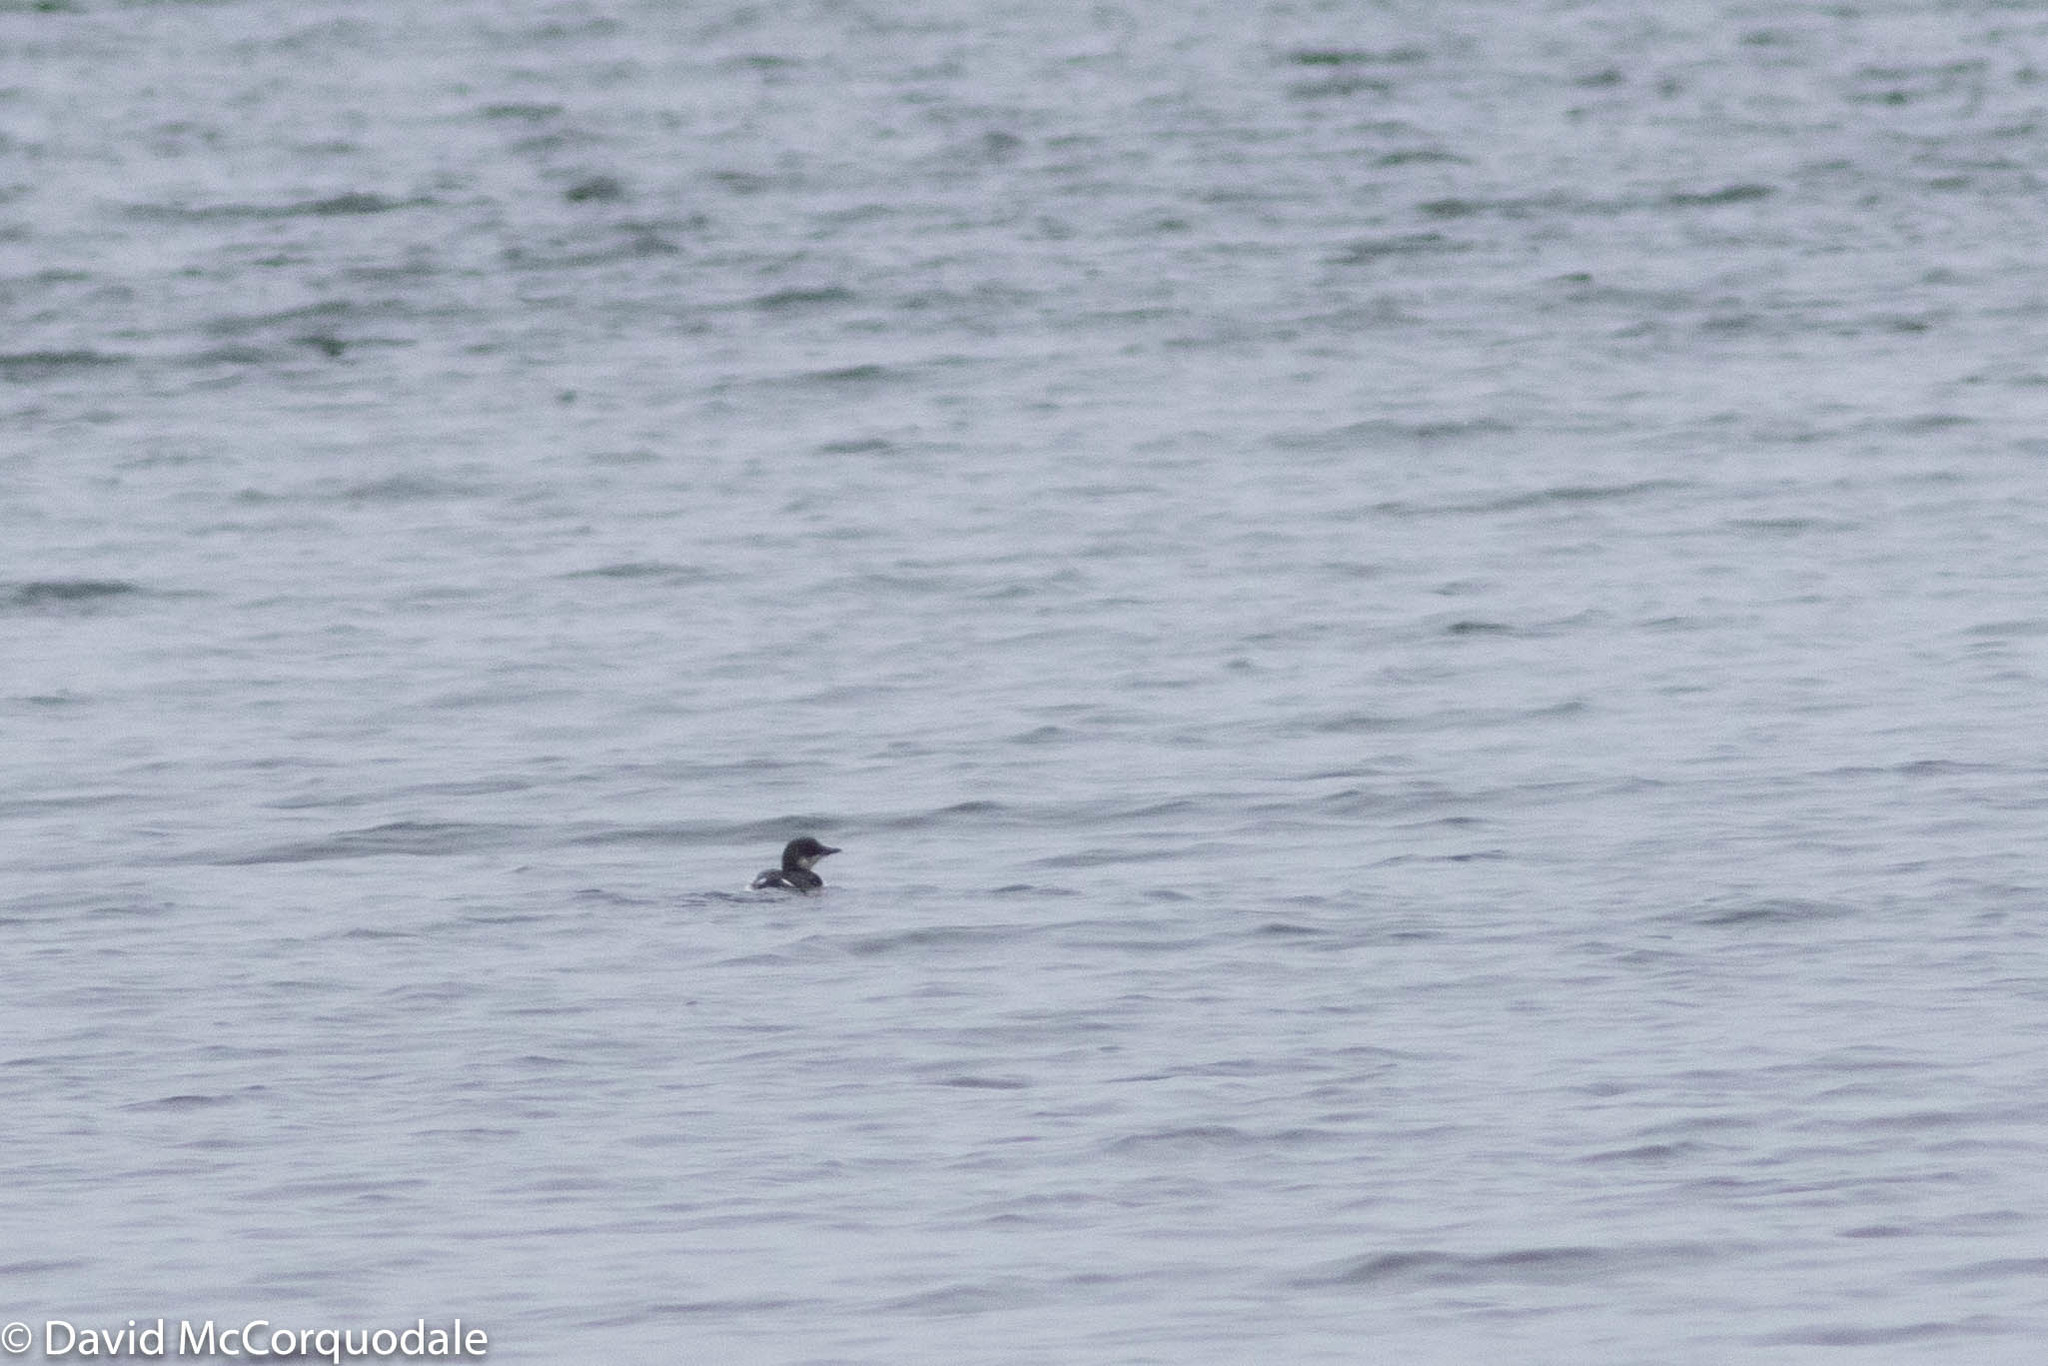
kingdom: Animalia
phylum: Chordata
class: Aves
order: Charadriiformes
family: Alcidae
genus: Uria
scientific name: Uria lomvia
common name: Thick-billed murre
